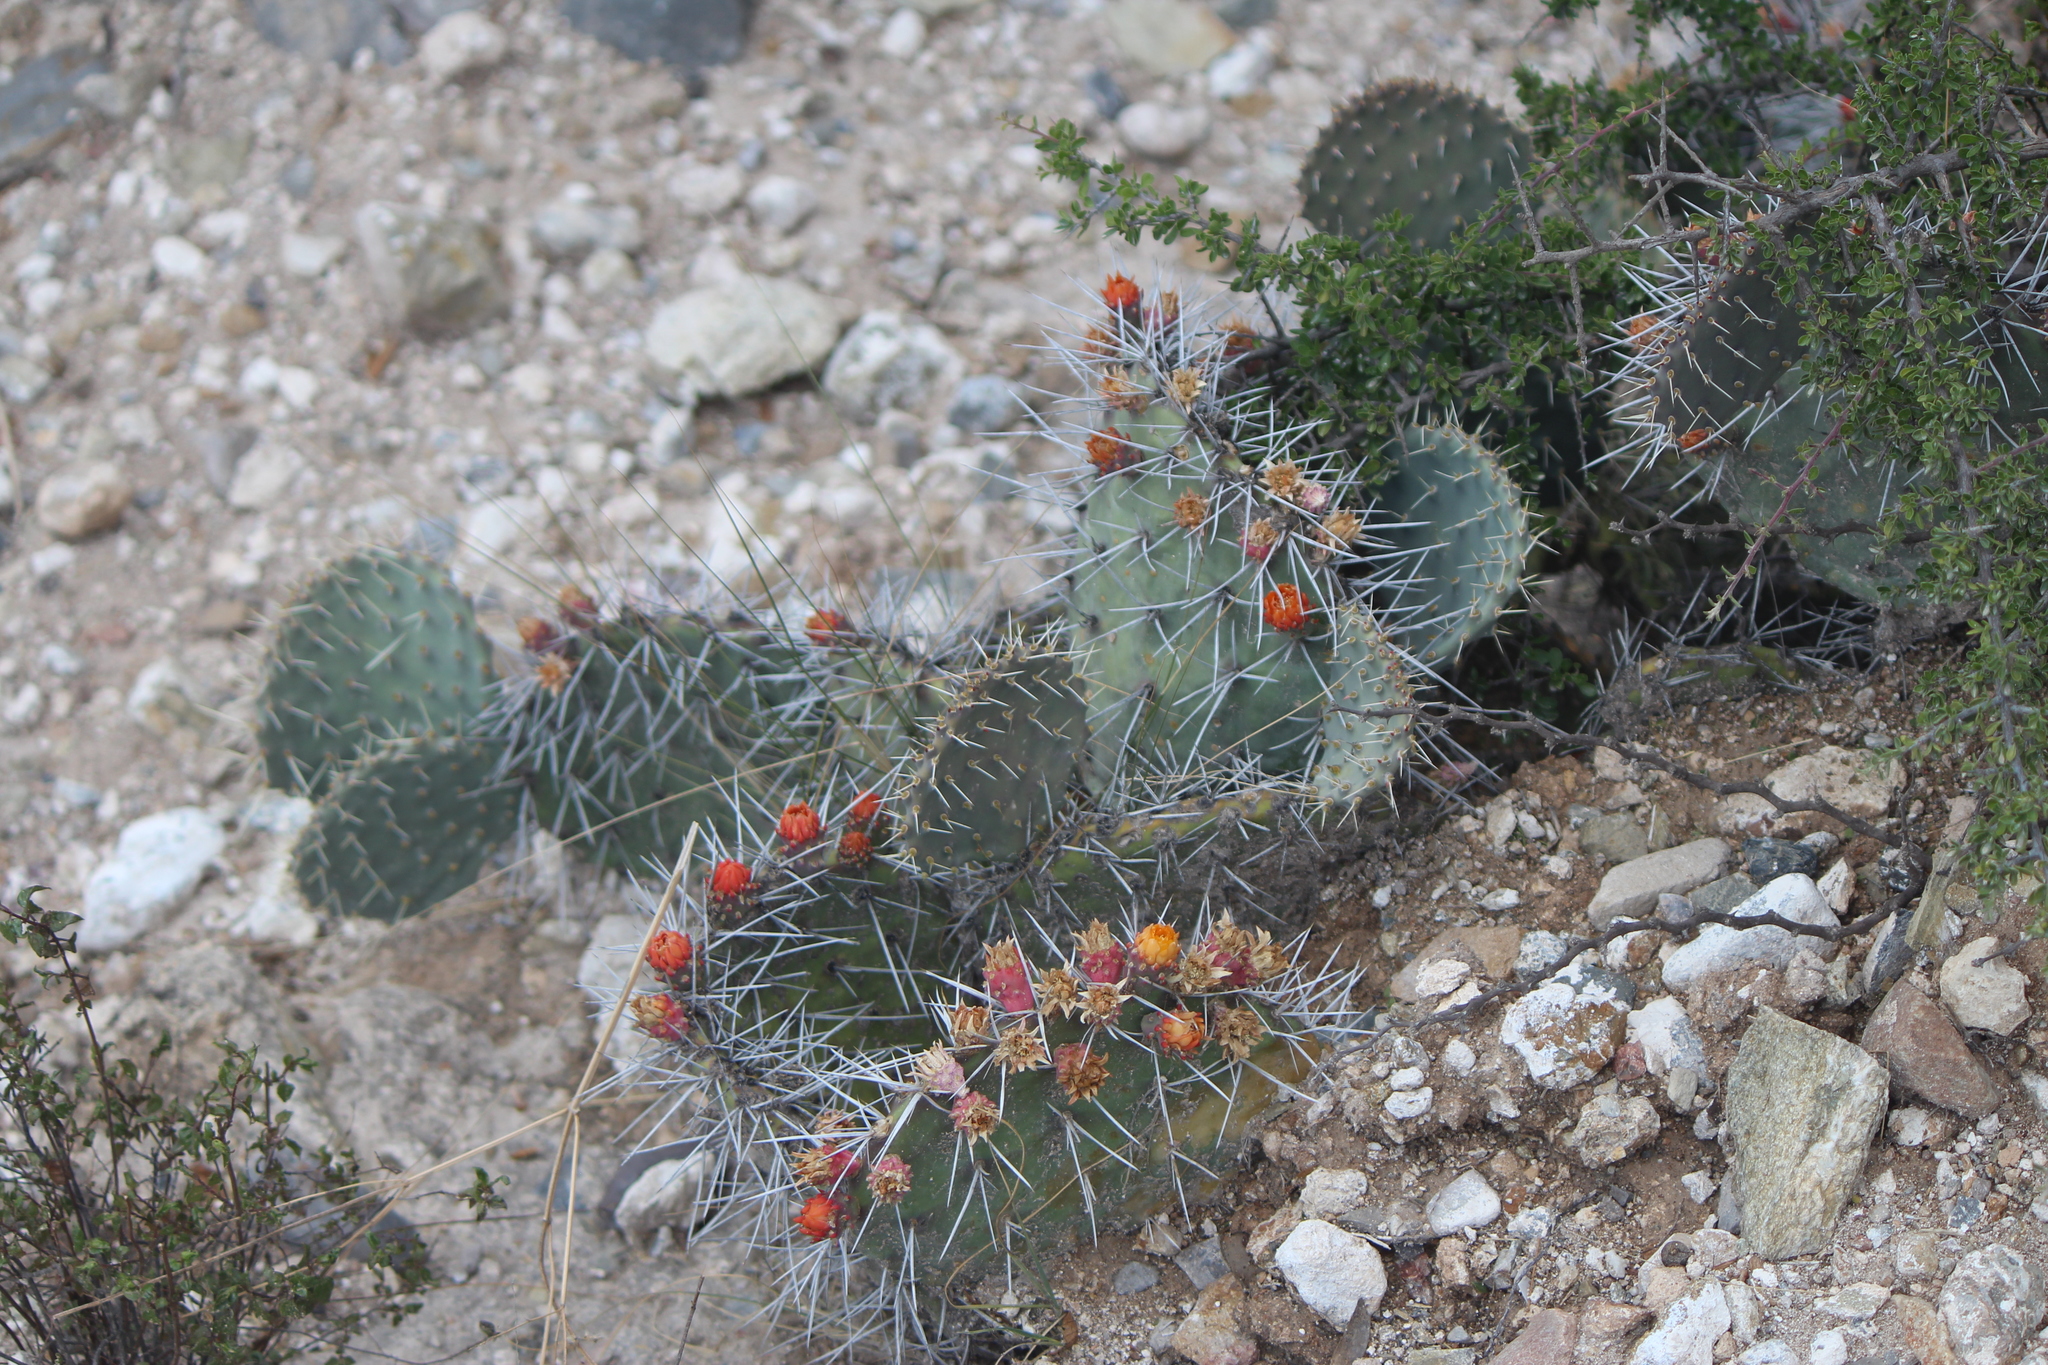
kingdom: Plantae
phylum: Tracheophyta
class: Magnoliopsida
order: Caryophyllales
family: Cactaceae
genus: Opuntia
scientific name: Opuntia stenopetala
